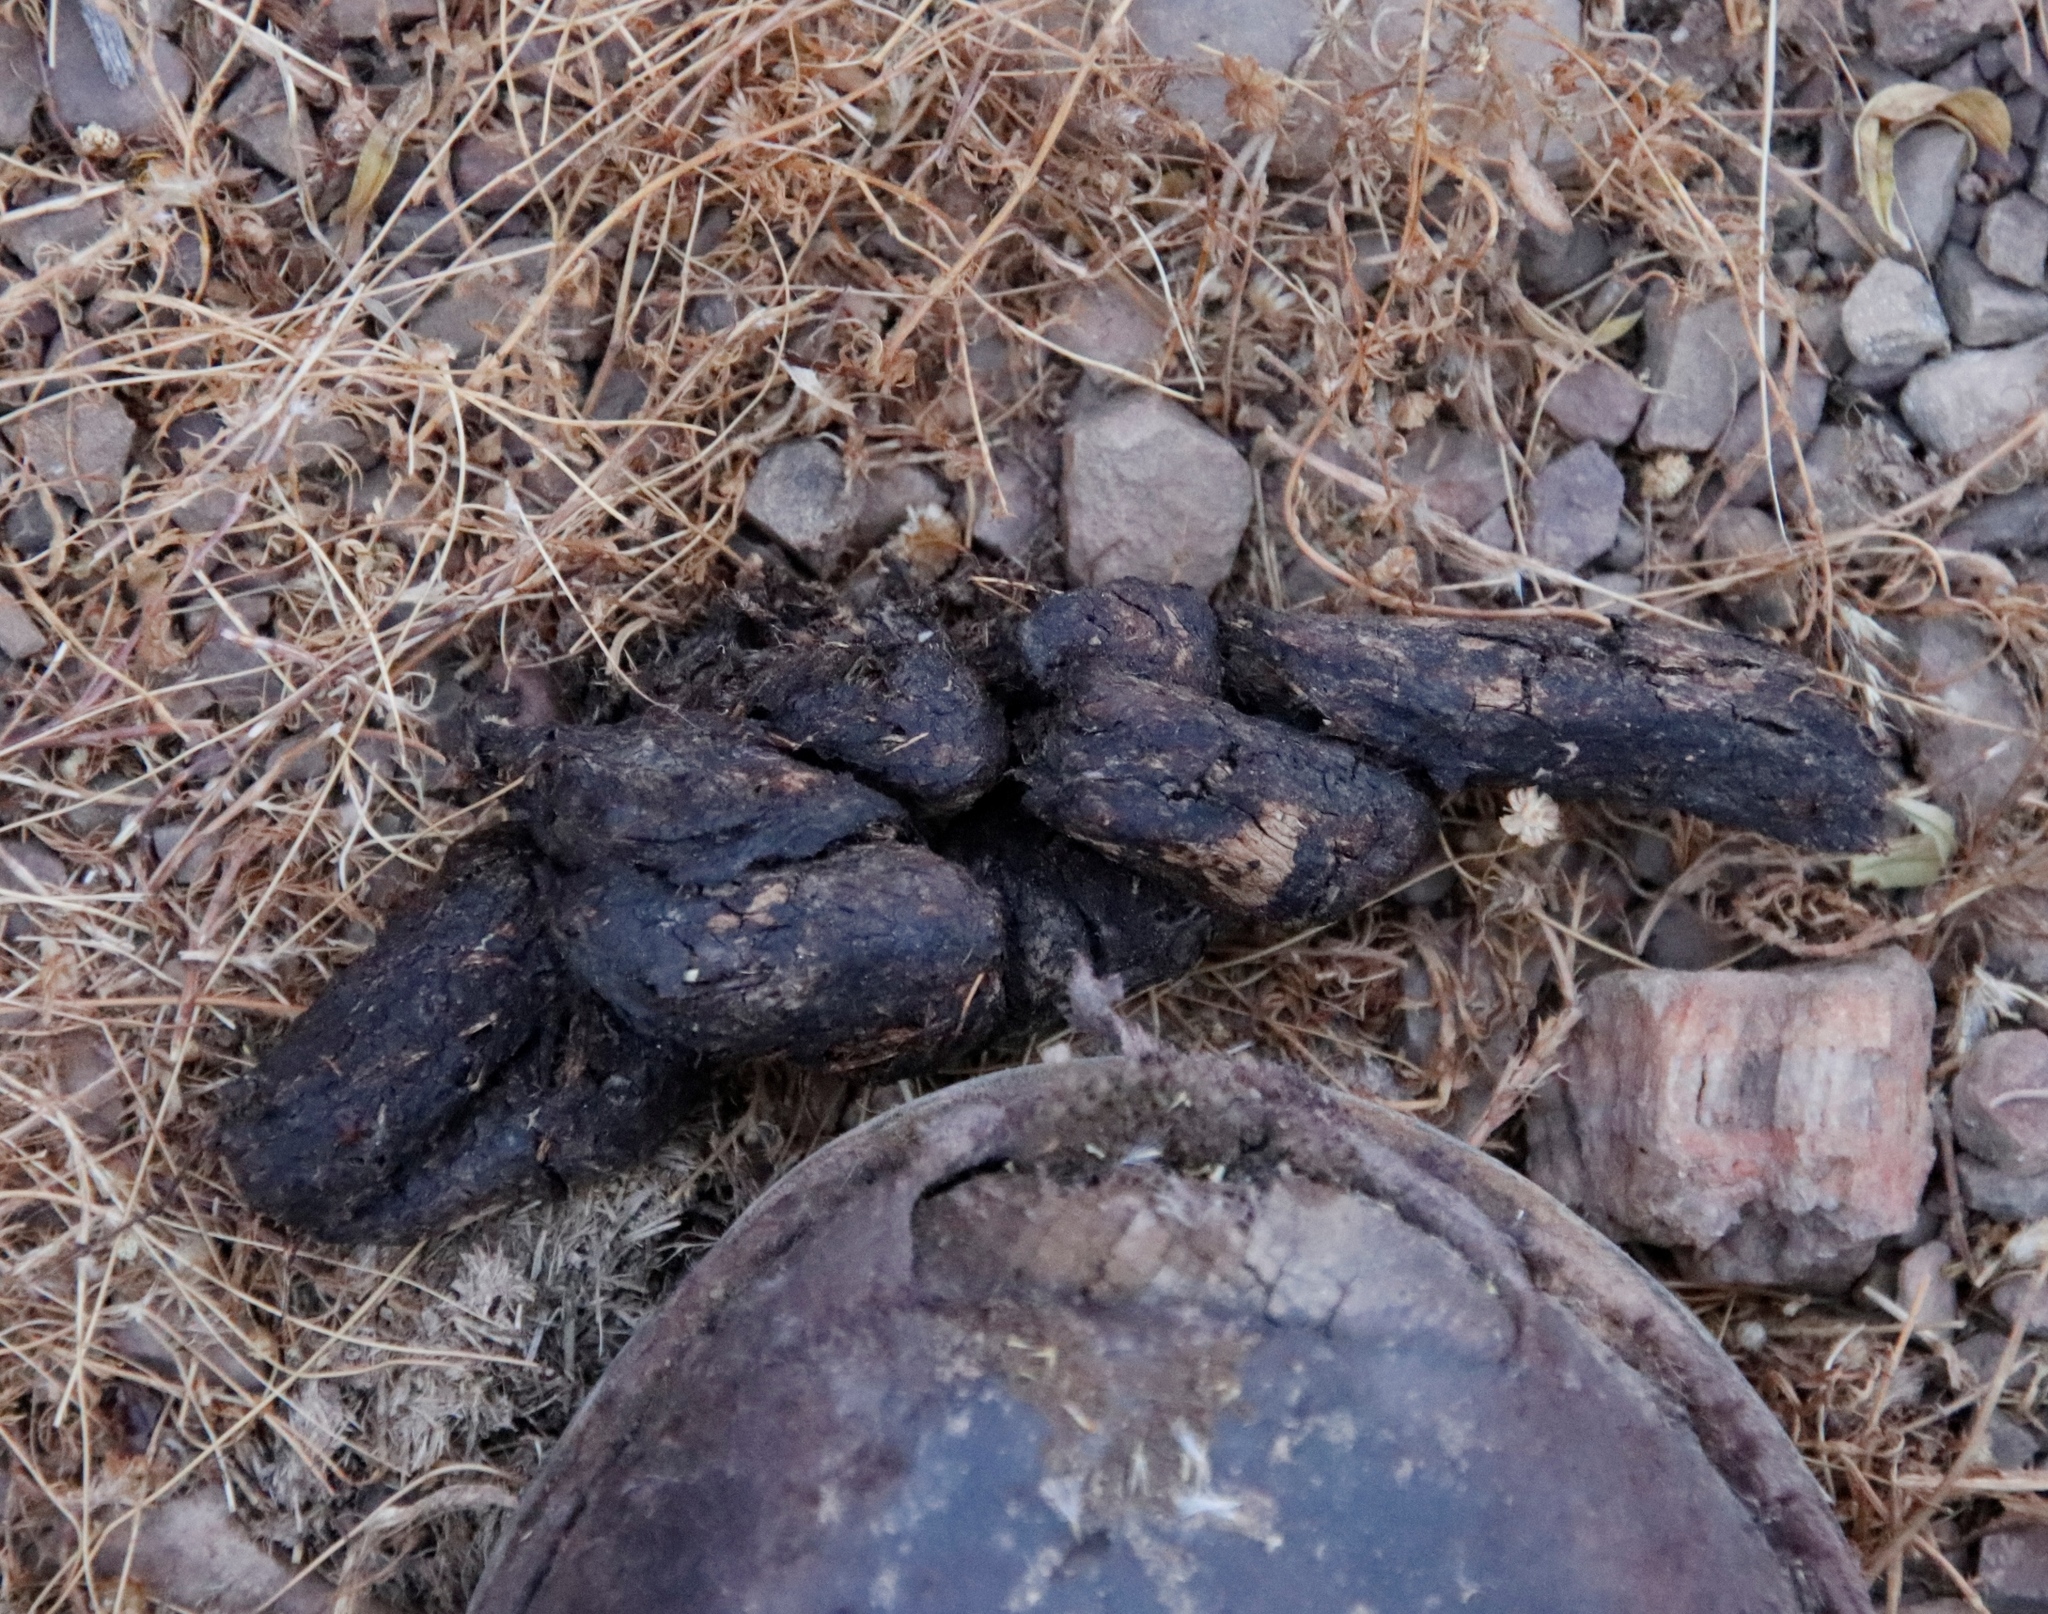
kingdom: Animalia
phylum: Chordata
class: Mammalia
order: Rodentia
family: Hystricidae
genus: Hystrix
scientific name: Hystrix africaeaustralis
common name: Cape porcupine
